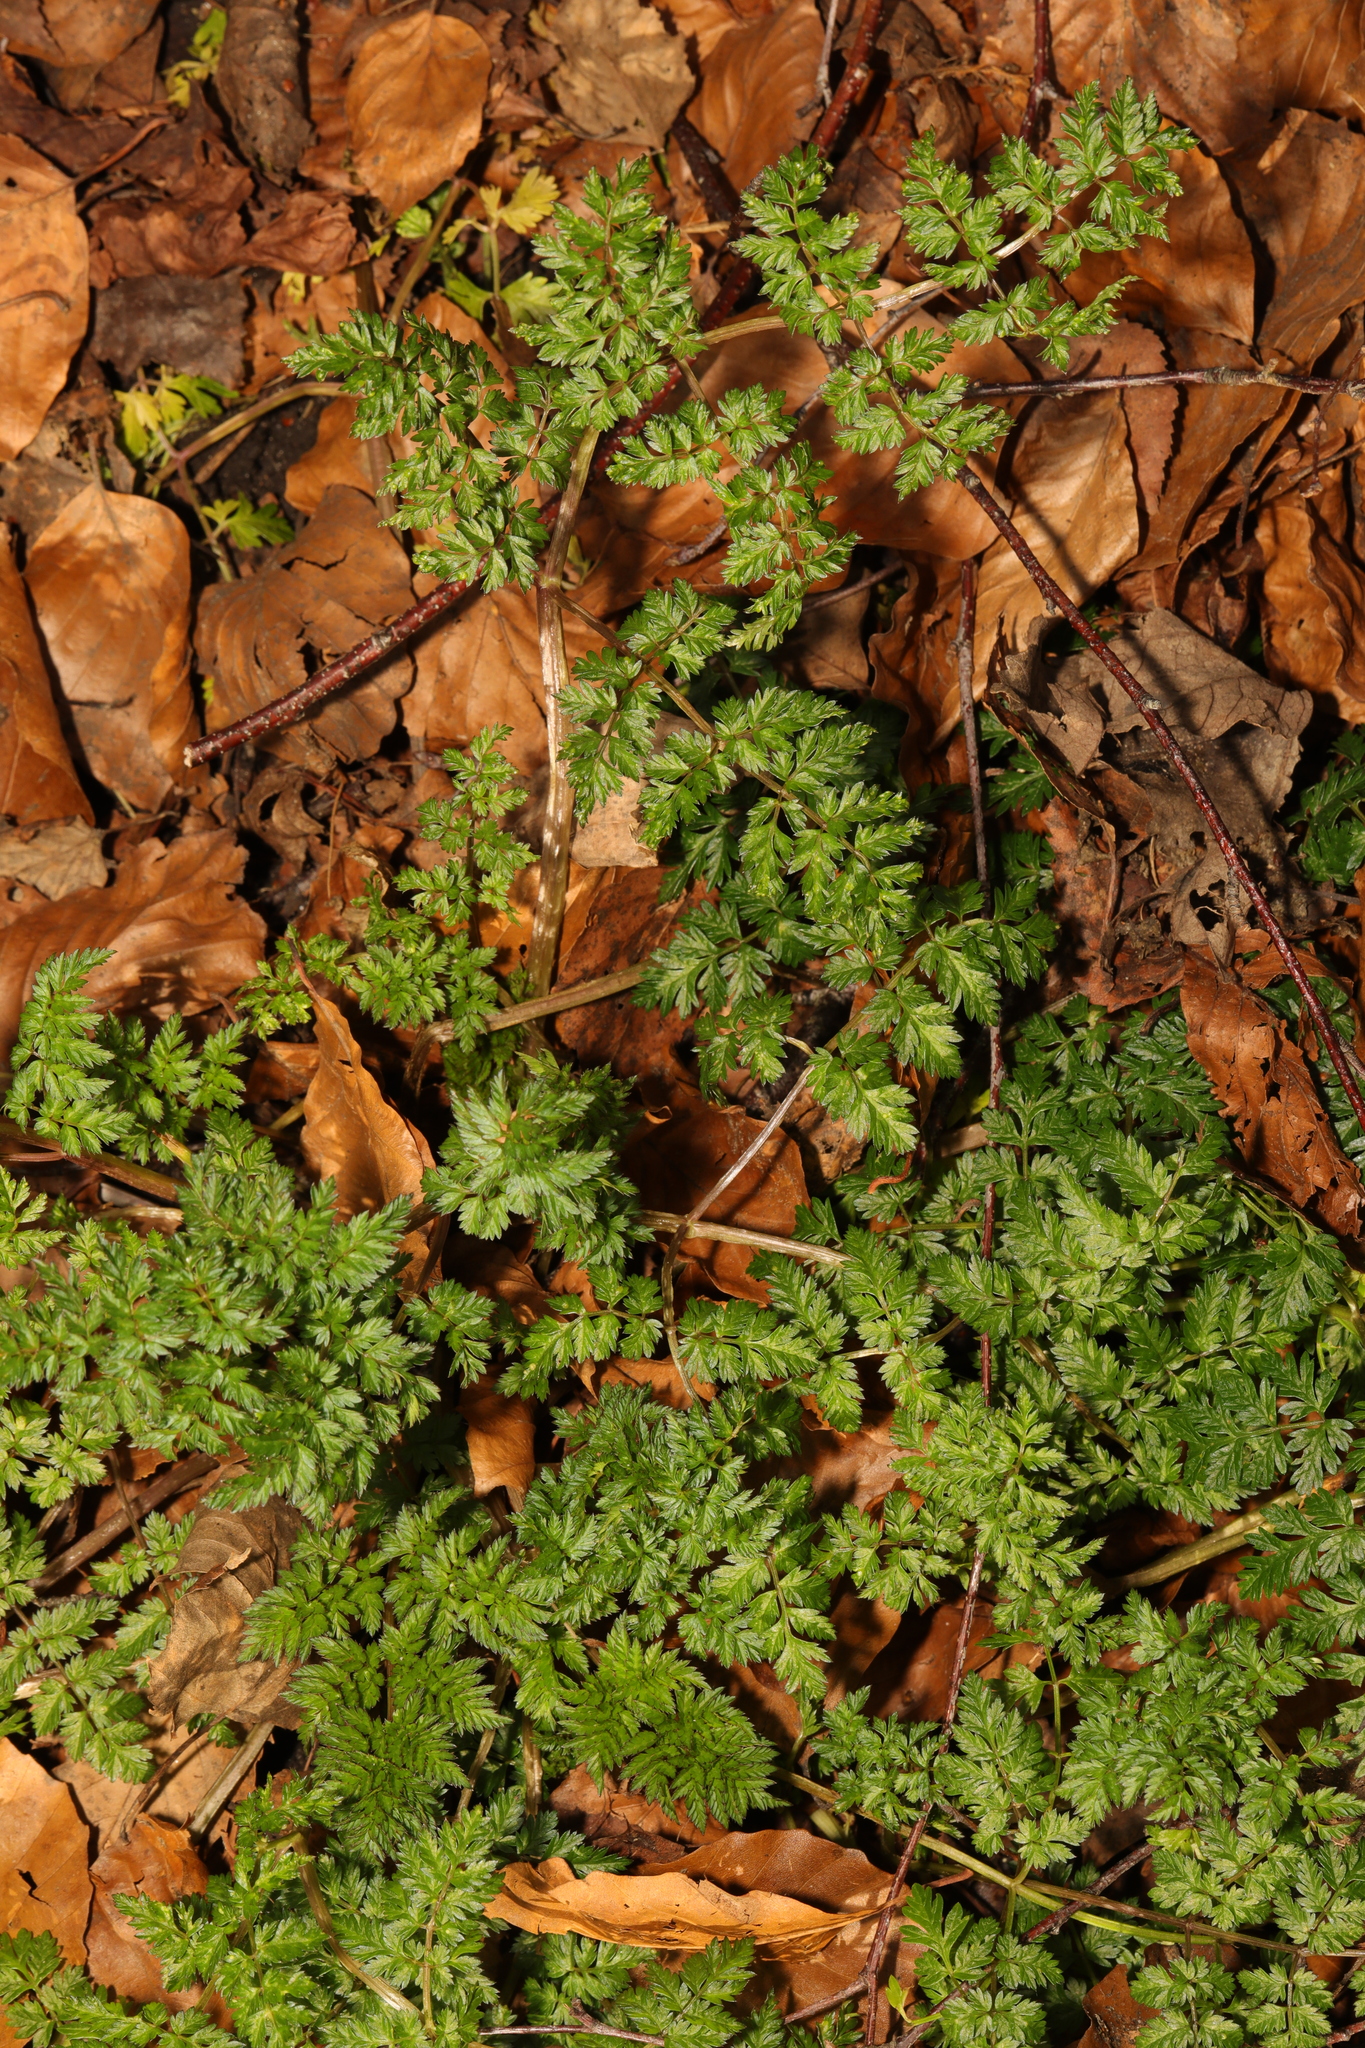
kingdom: Plantae
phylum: Tracheophyta
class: Magnoliopsida
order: Apiales
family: Apiaceae
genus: Anthriscus
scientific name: Anthriscus sylvestris
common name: Cow parsley
